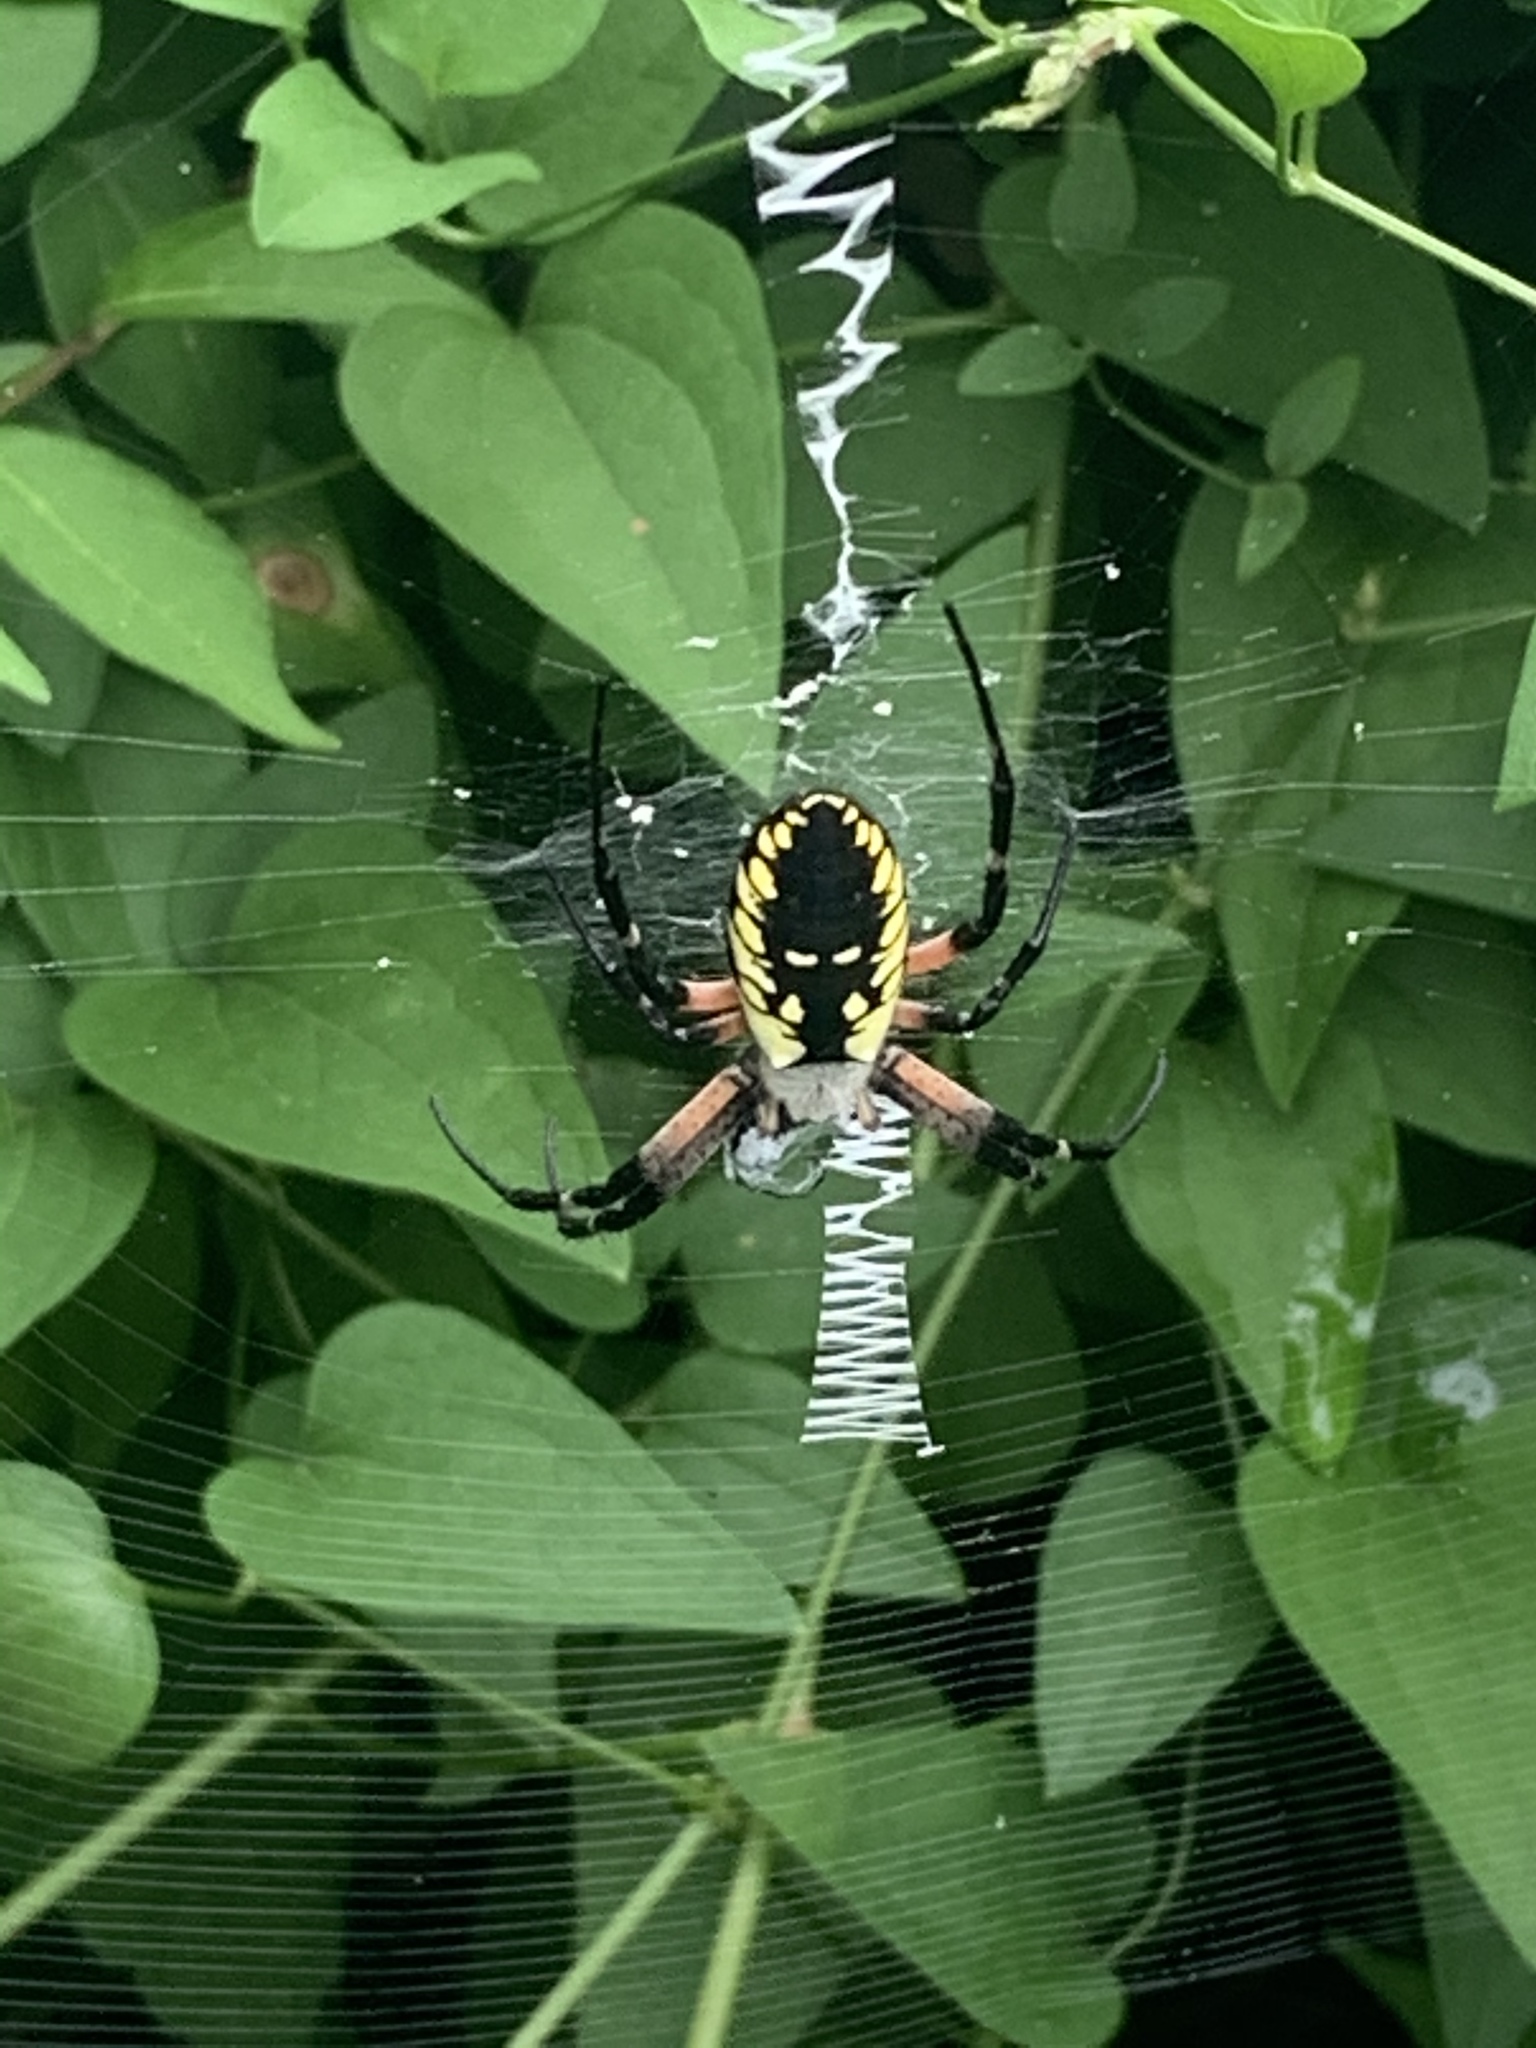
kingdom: Animalia
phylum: Arthropoda
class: Arachnida
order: Araneae
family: Araneidae
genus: Argiope
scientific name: Argiope aurantia
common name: Orb weavers
